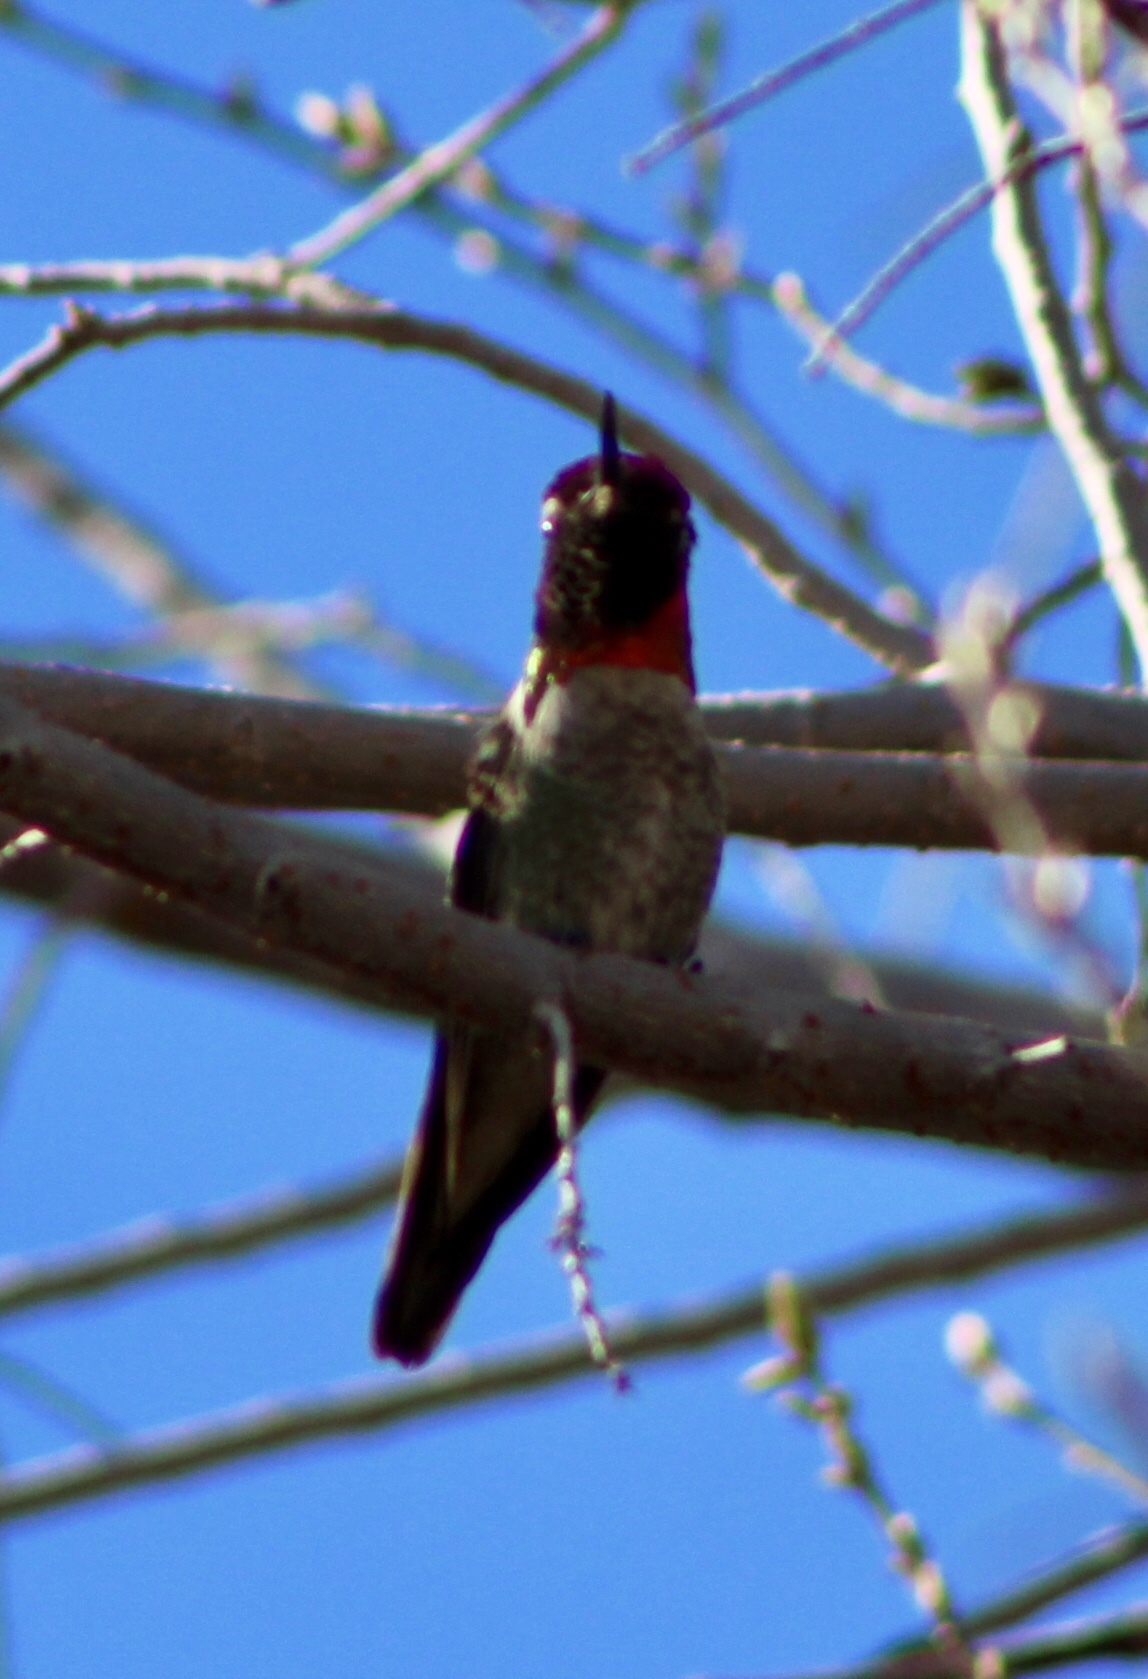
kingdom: Animalia
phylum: Chordata
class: Aves
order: Apodiformes
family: Trochilidae
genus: Calypte
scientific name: Calypte anna
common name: Anna's hummingbird
